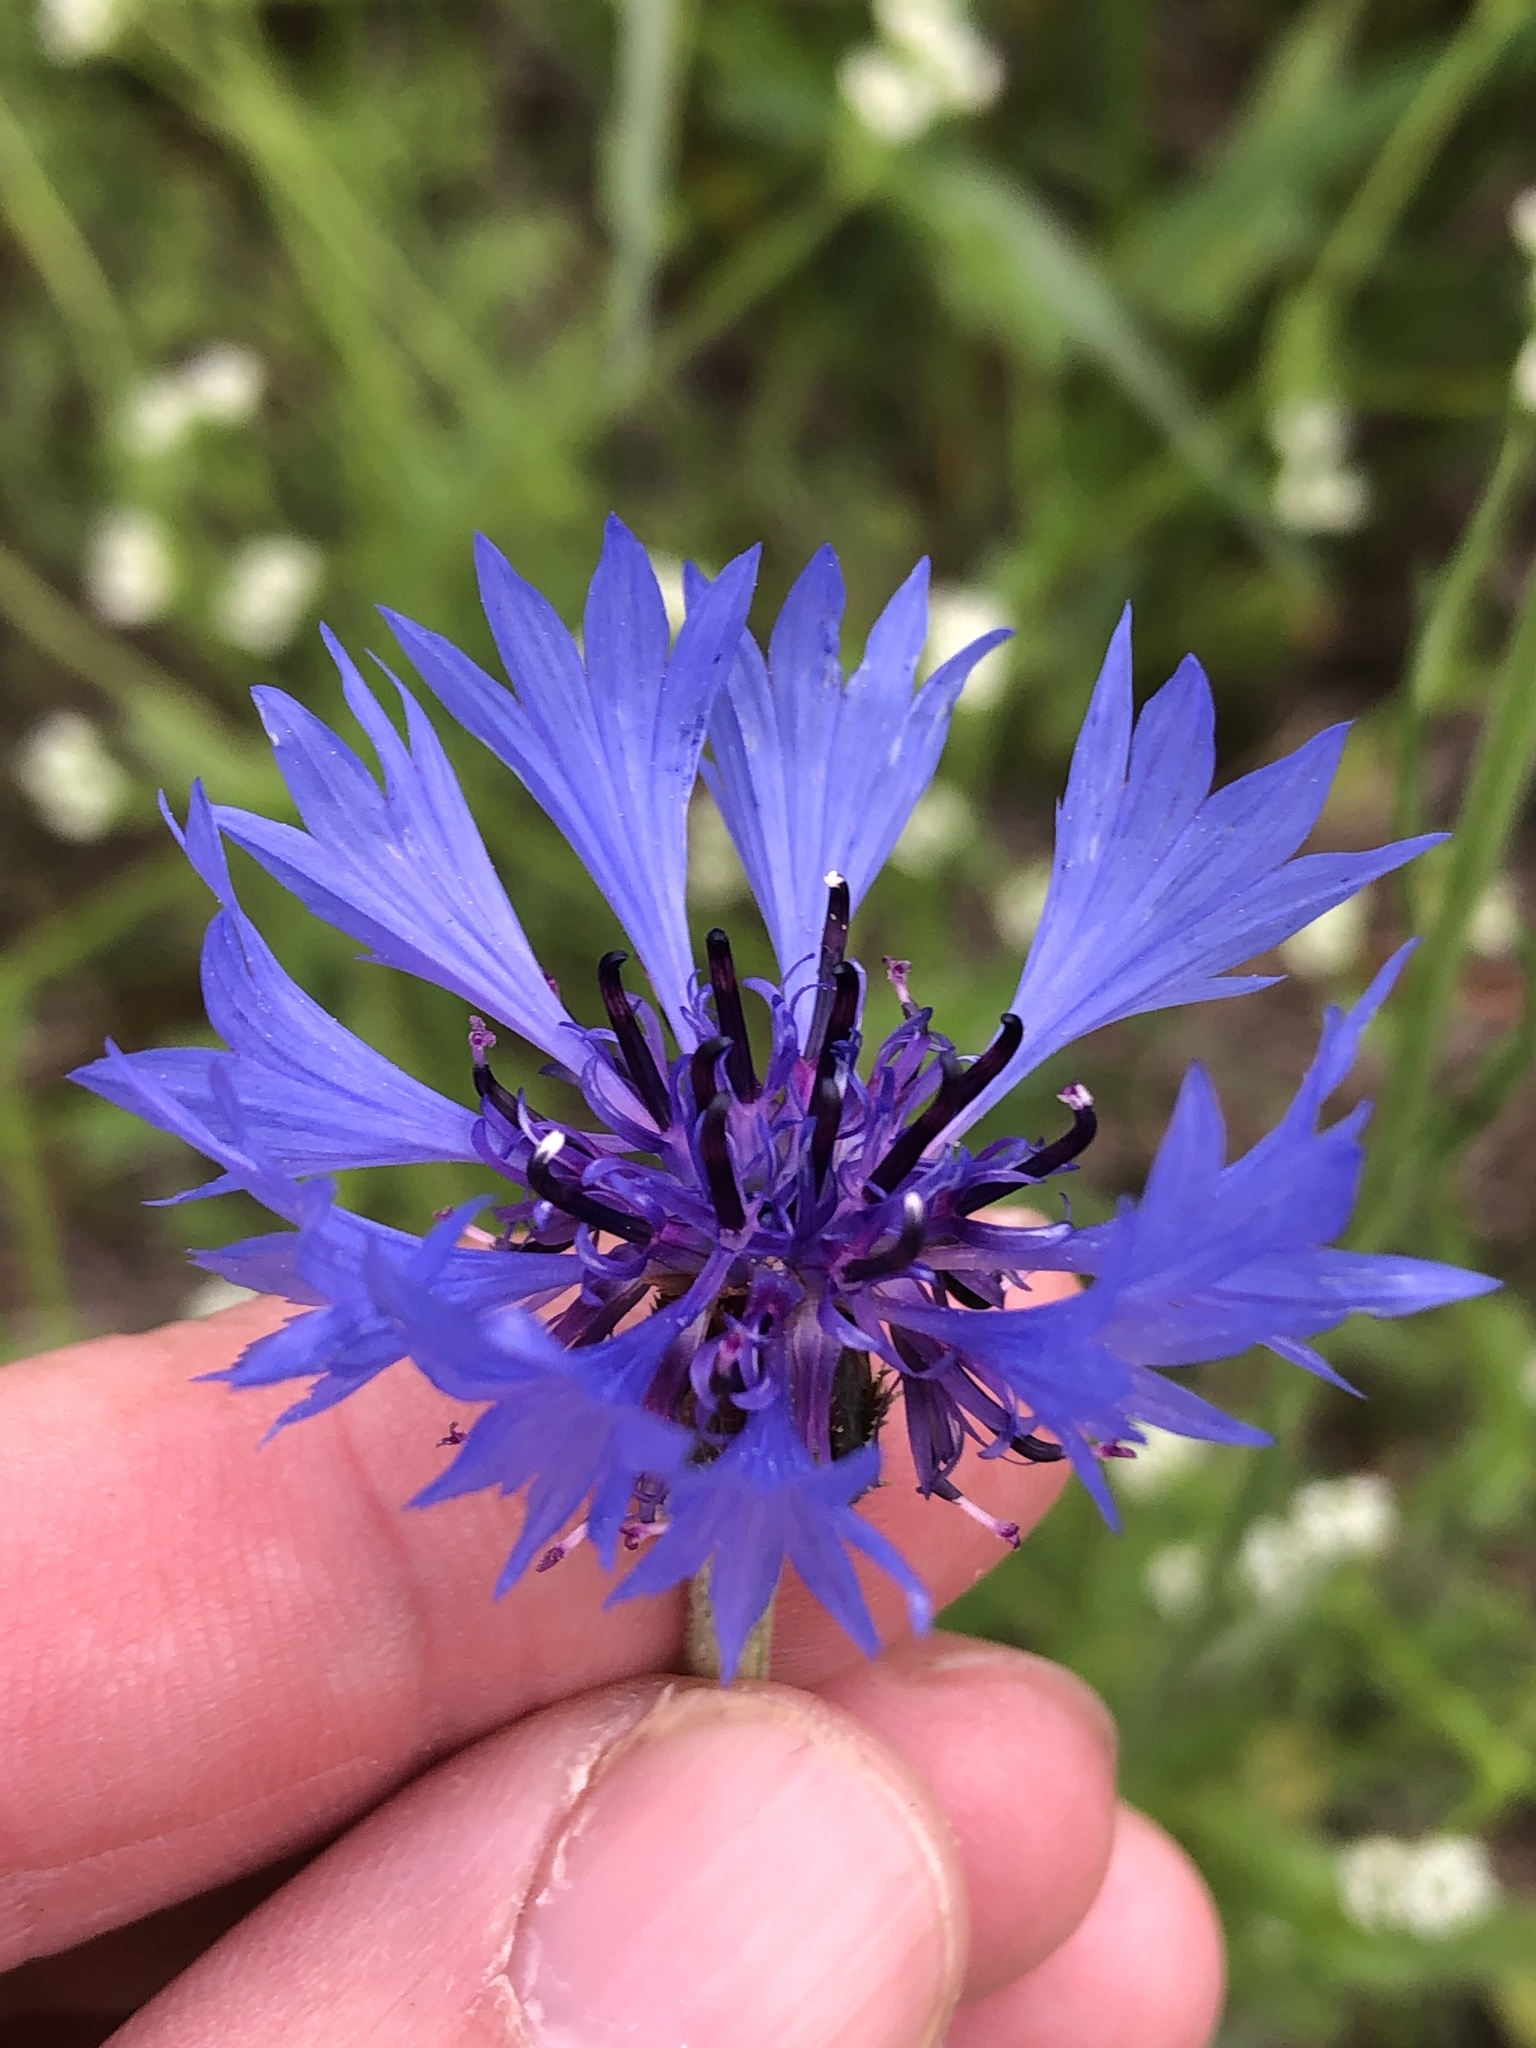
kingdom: Plantae
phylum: Tracheophyta
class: Magnoliopsida
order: Asterales
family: Asteraceae
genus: Centaurea
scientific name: Centaurea cyanus
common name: Cornflower
